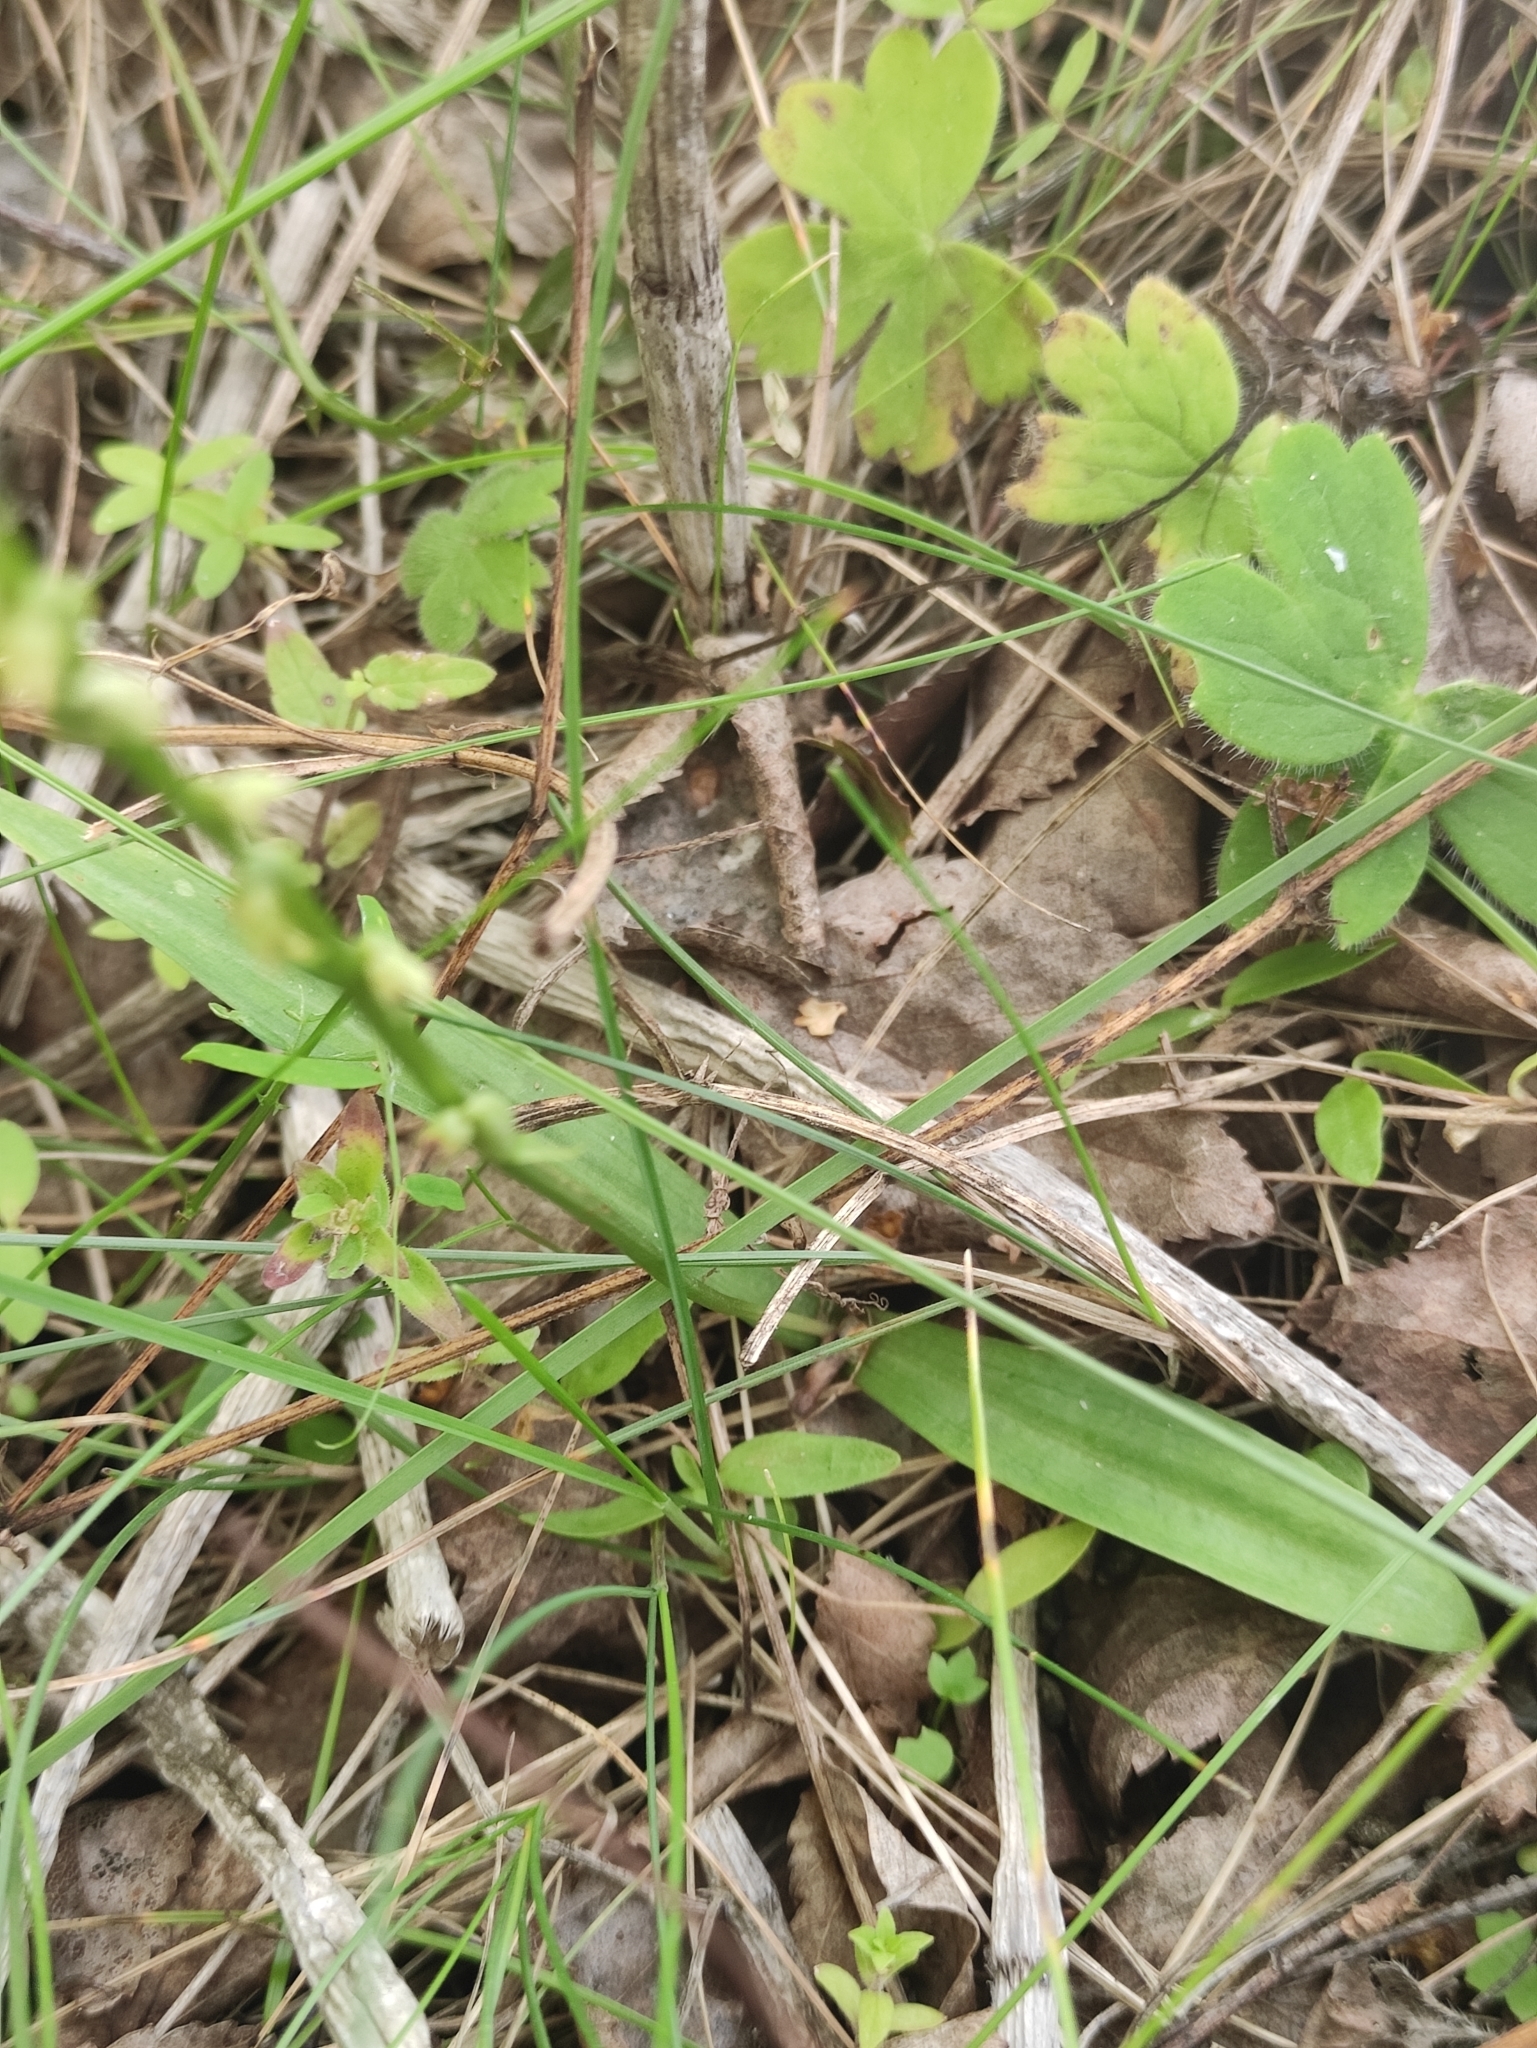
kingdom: Plantae
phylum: Tracheophyta
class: Liliopsida
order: Asparagales
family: Orchidaceae
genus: Herminium
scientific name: Herminium monorchis
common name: Musk orchid
